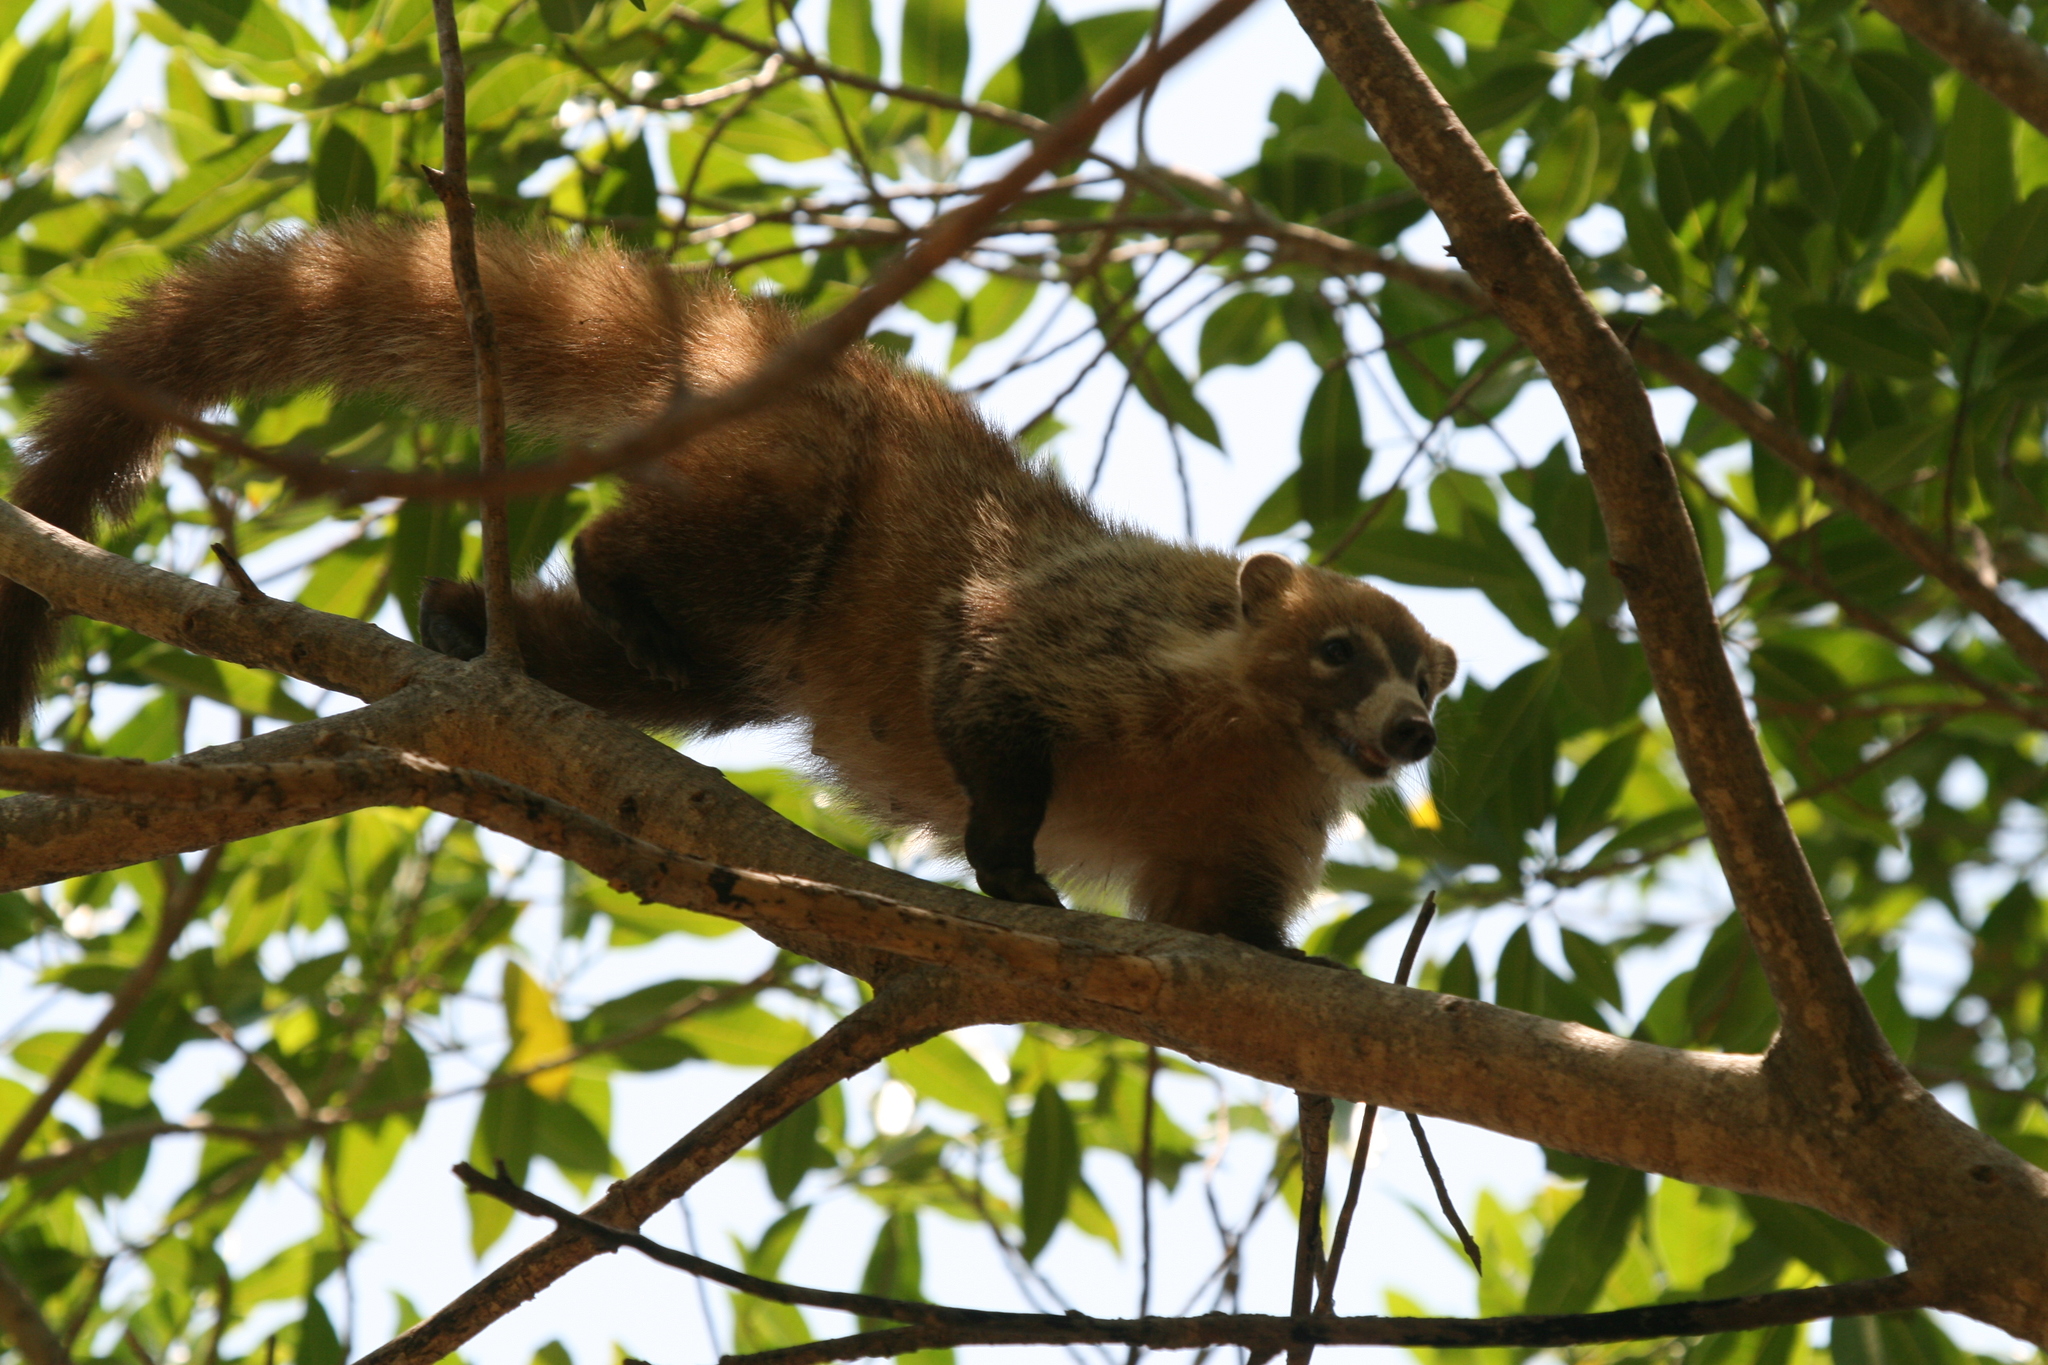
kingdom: Animalia
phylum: Chordata
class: Mammalia
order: Carnivora
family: Procyonidae
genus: Nasua
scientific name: Nasua narica
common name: White-nosed coati
